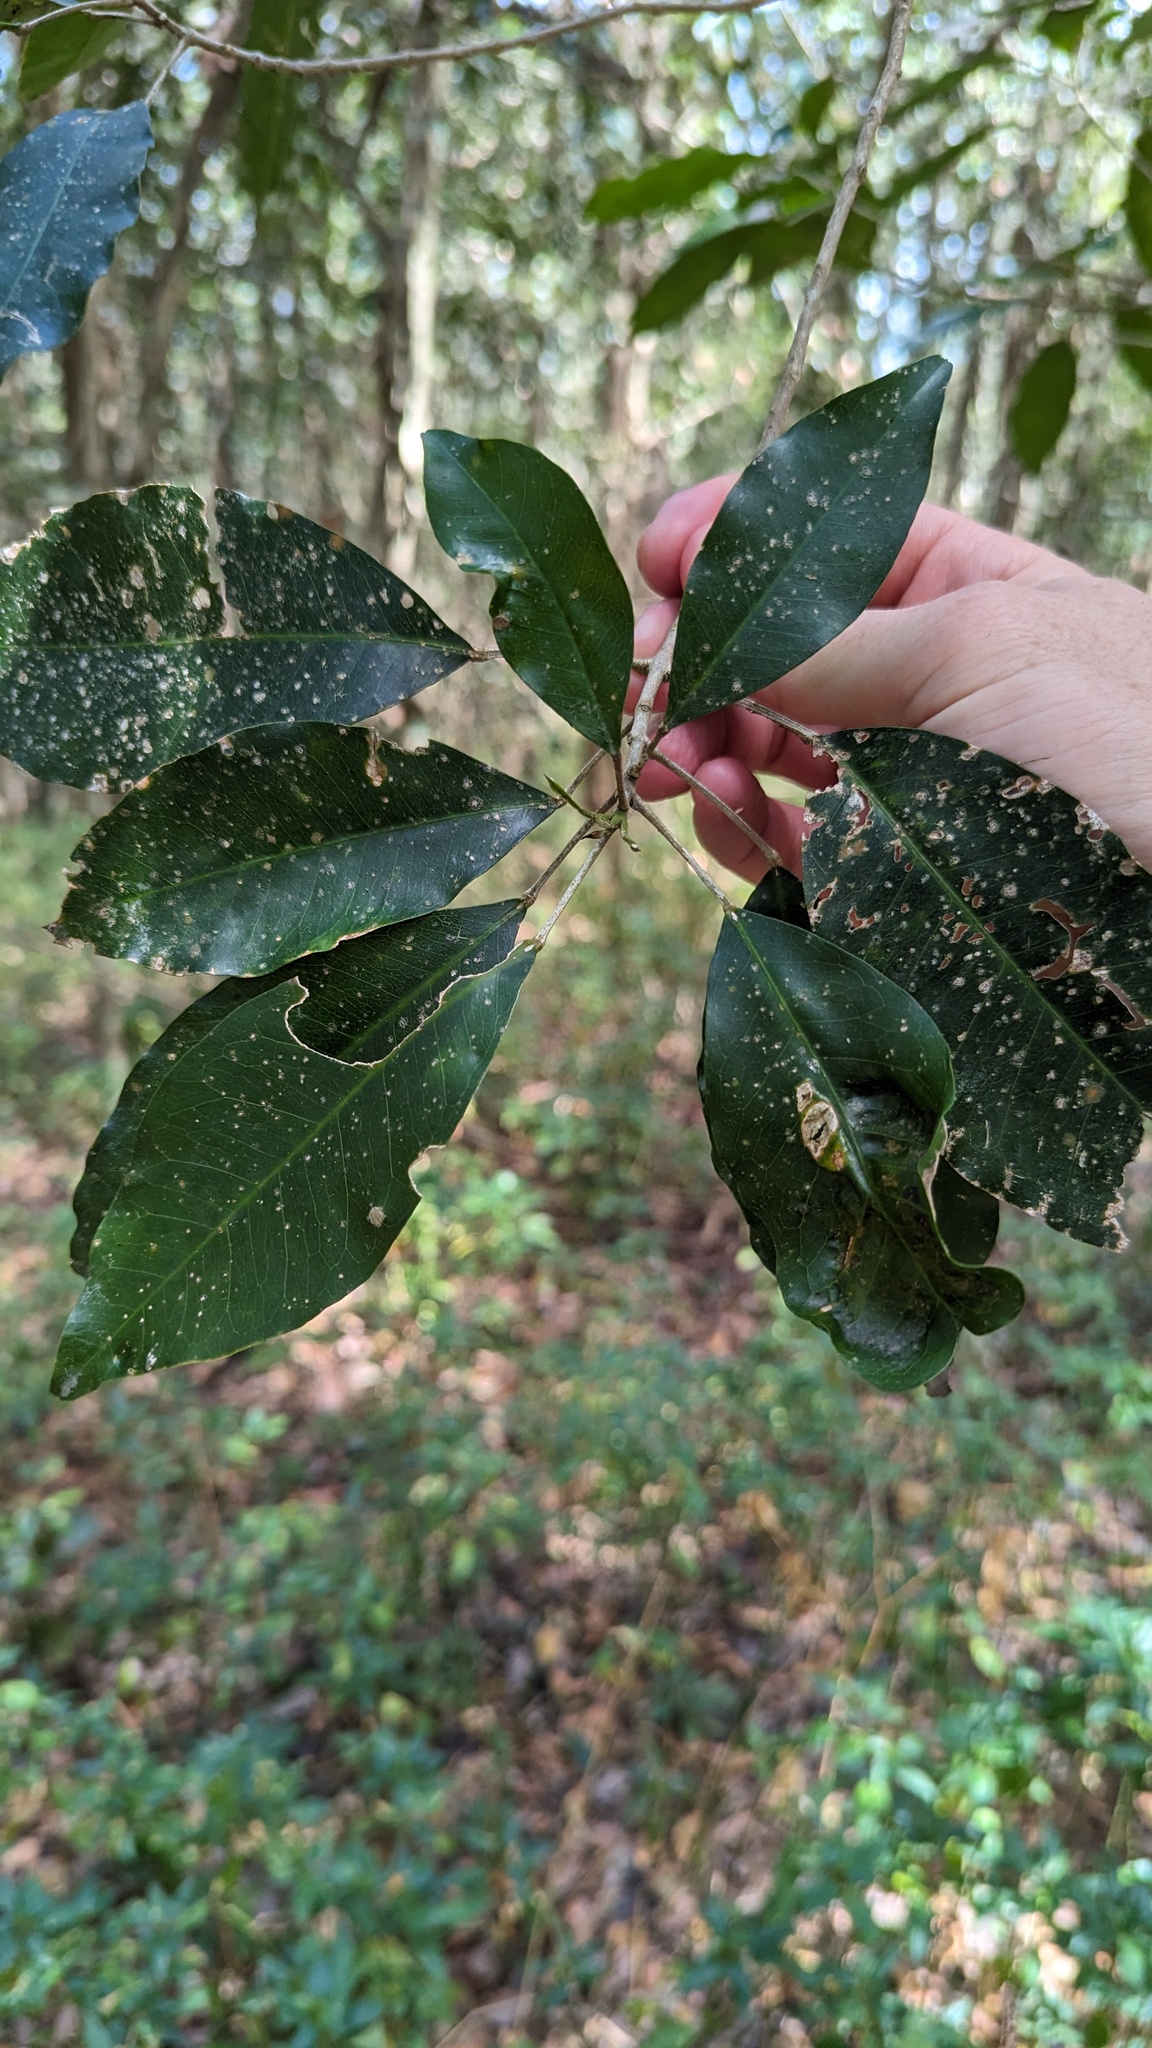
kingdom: Plantae
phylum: Tracheophyta
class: Magnoliopsida
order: Sapindales
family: Rutaceae
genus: Sarcomelicope
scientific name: Sarcomelicope simplicifolia
